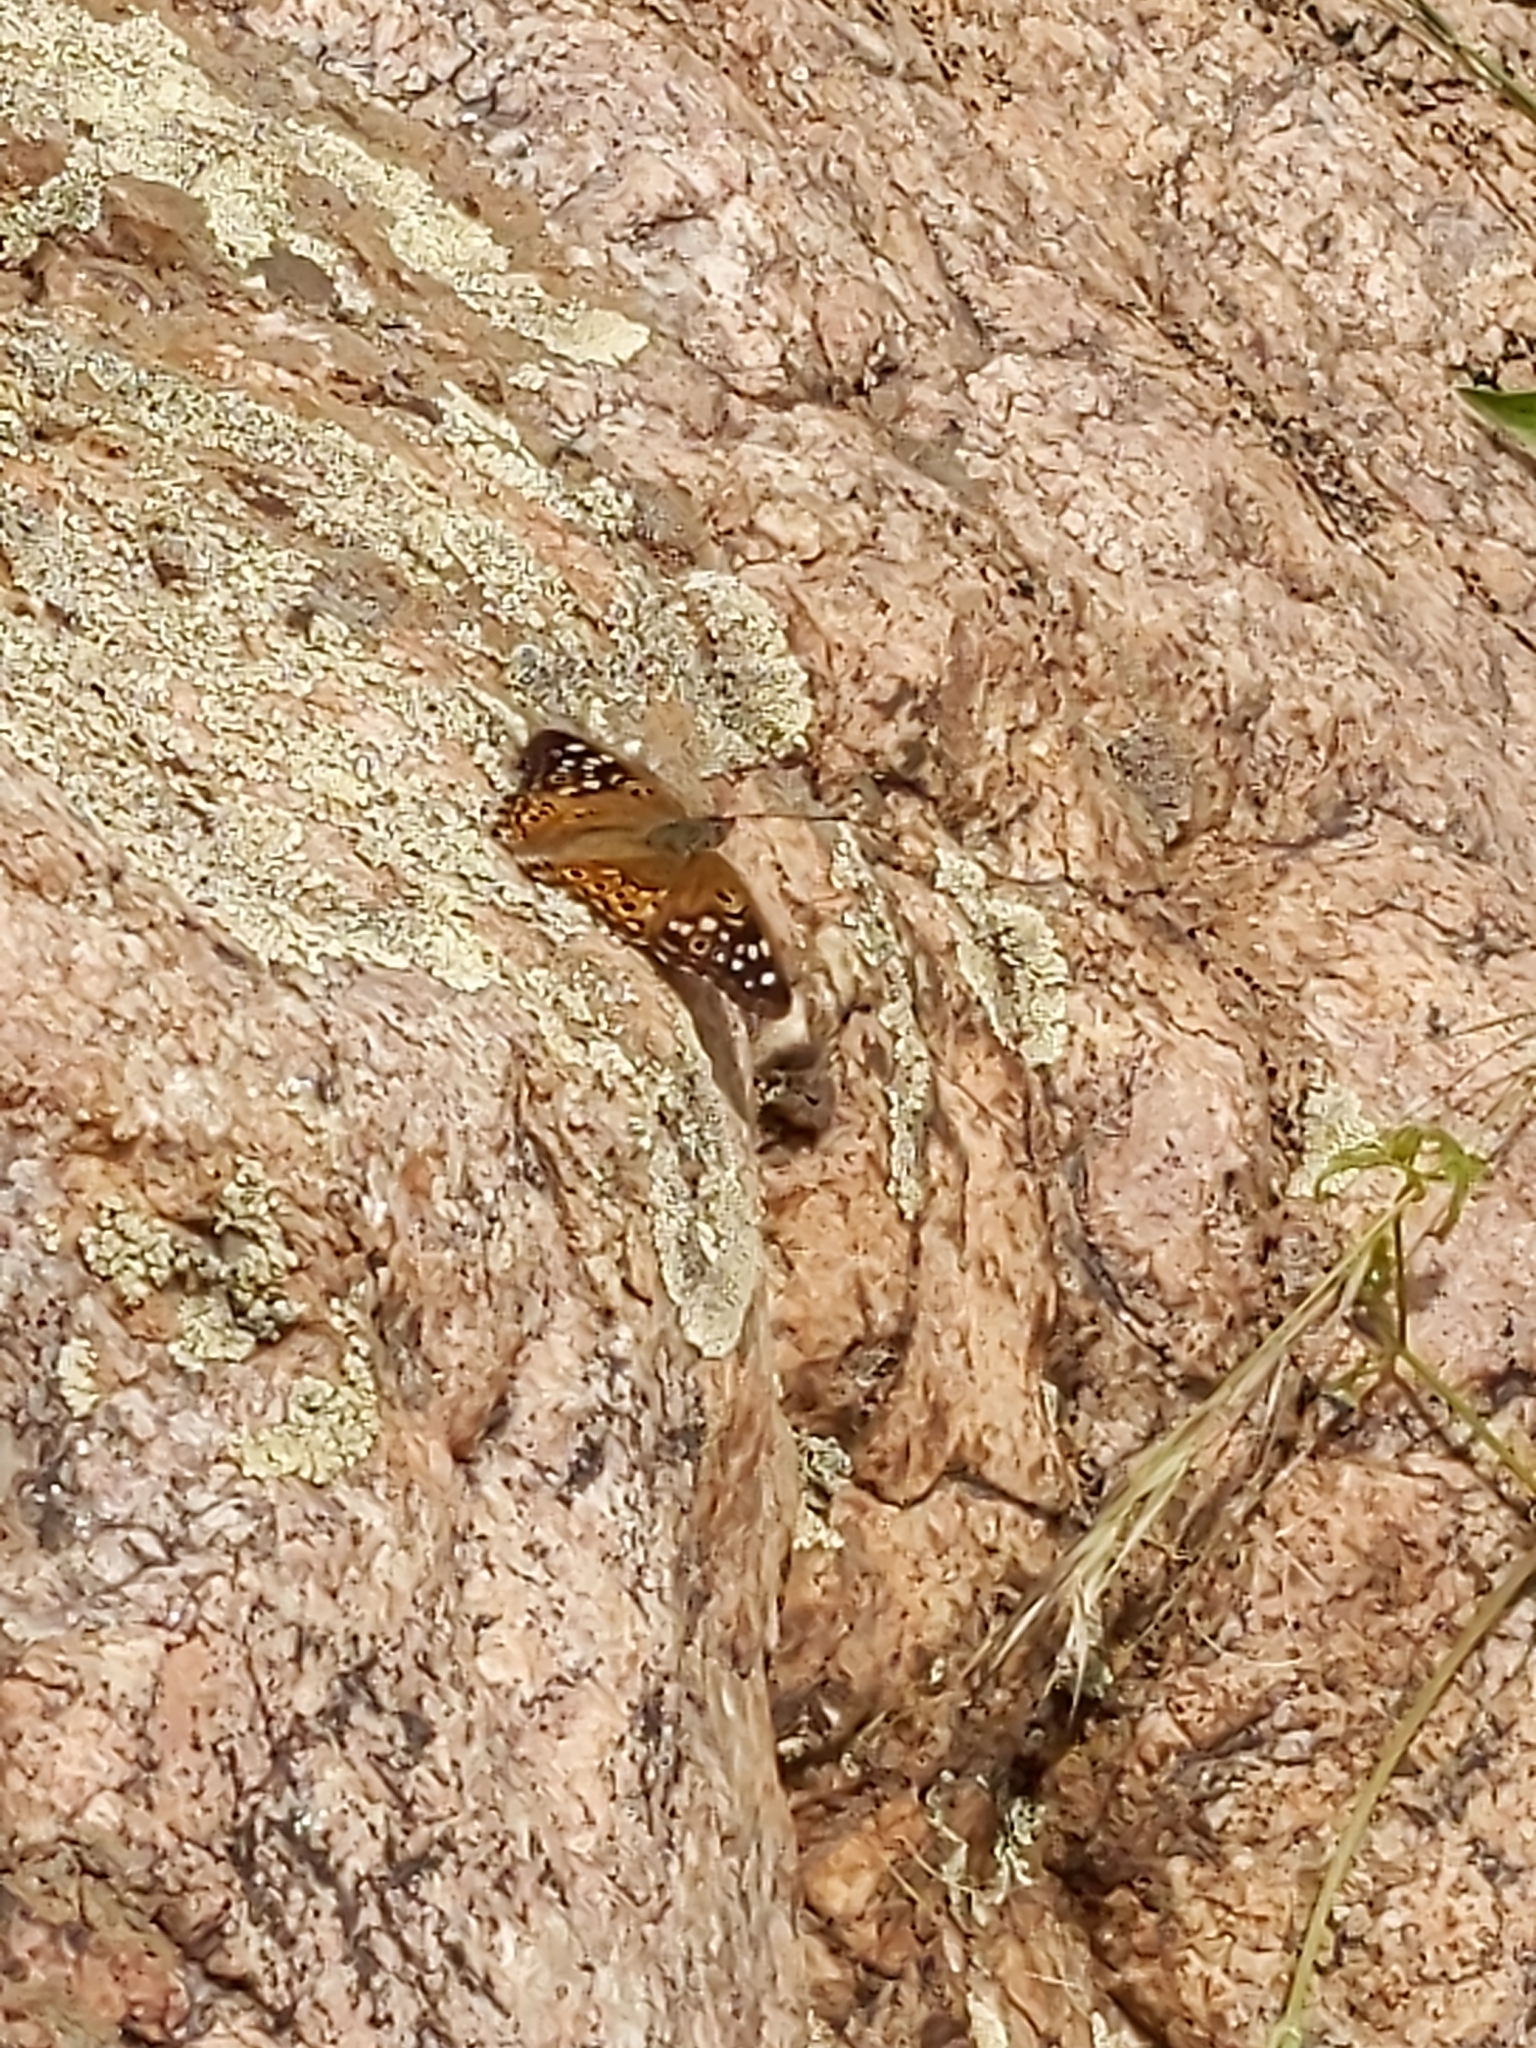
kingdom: Animalia
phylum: Arthropoda
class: Insecta
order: Lepidoptera
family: Nymphalidae
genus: Asterocampa
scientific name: Asterocampa celtis
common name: Hackberry emperor
